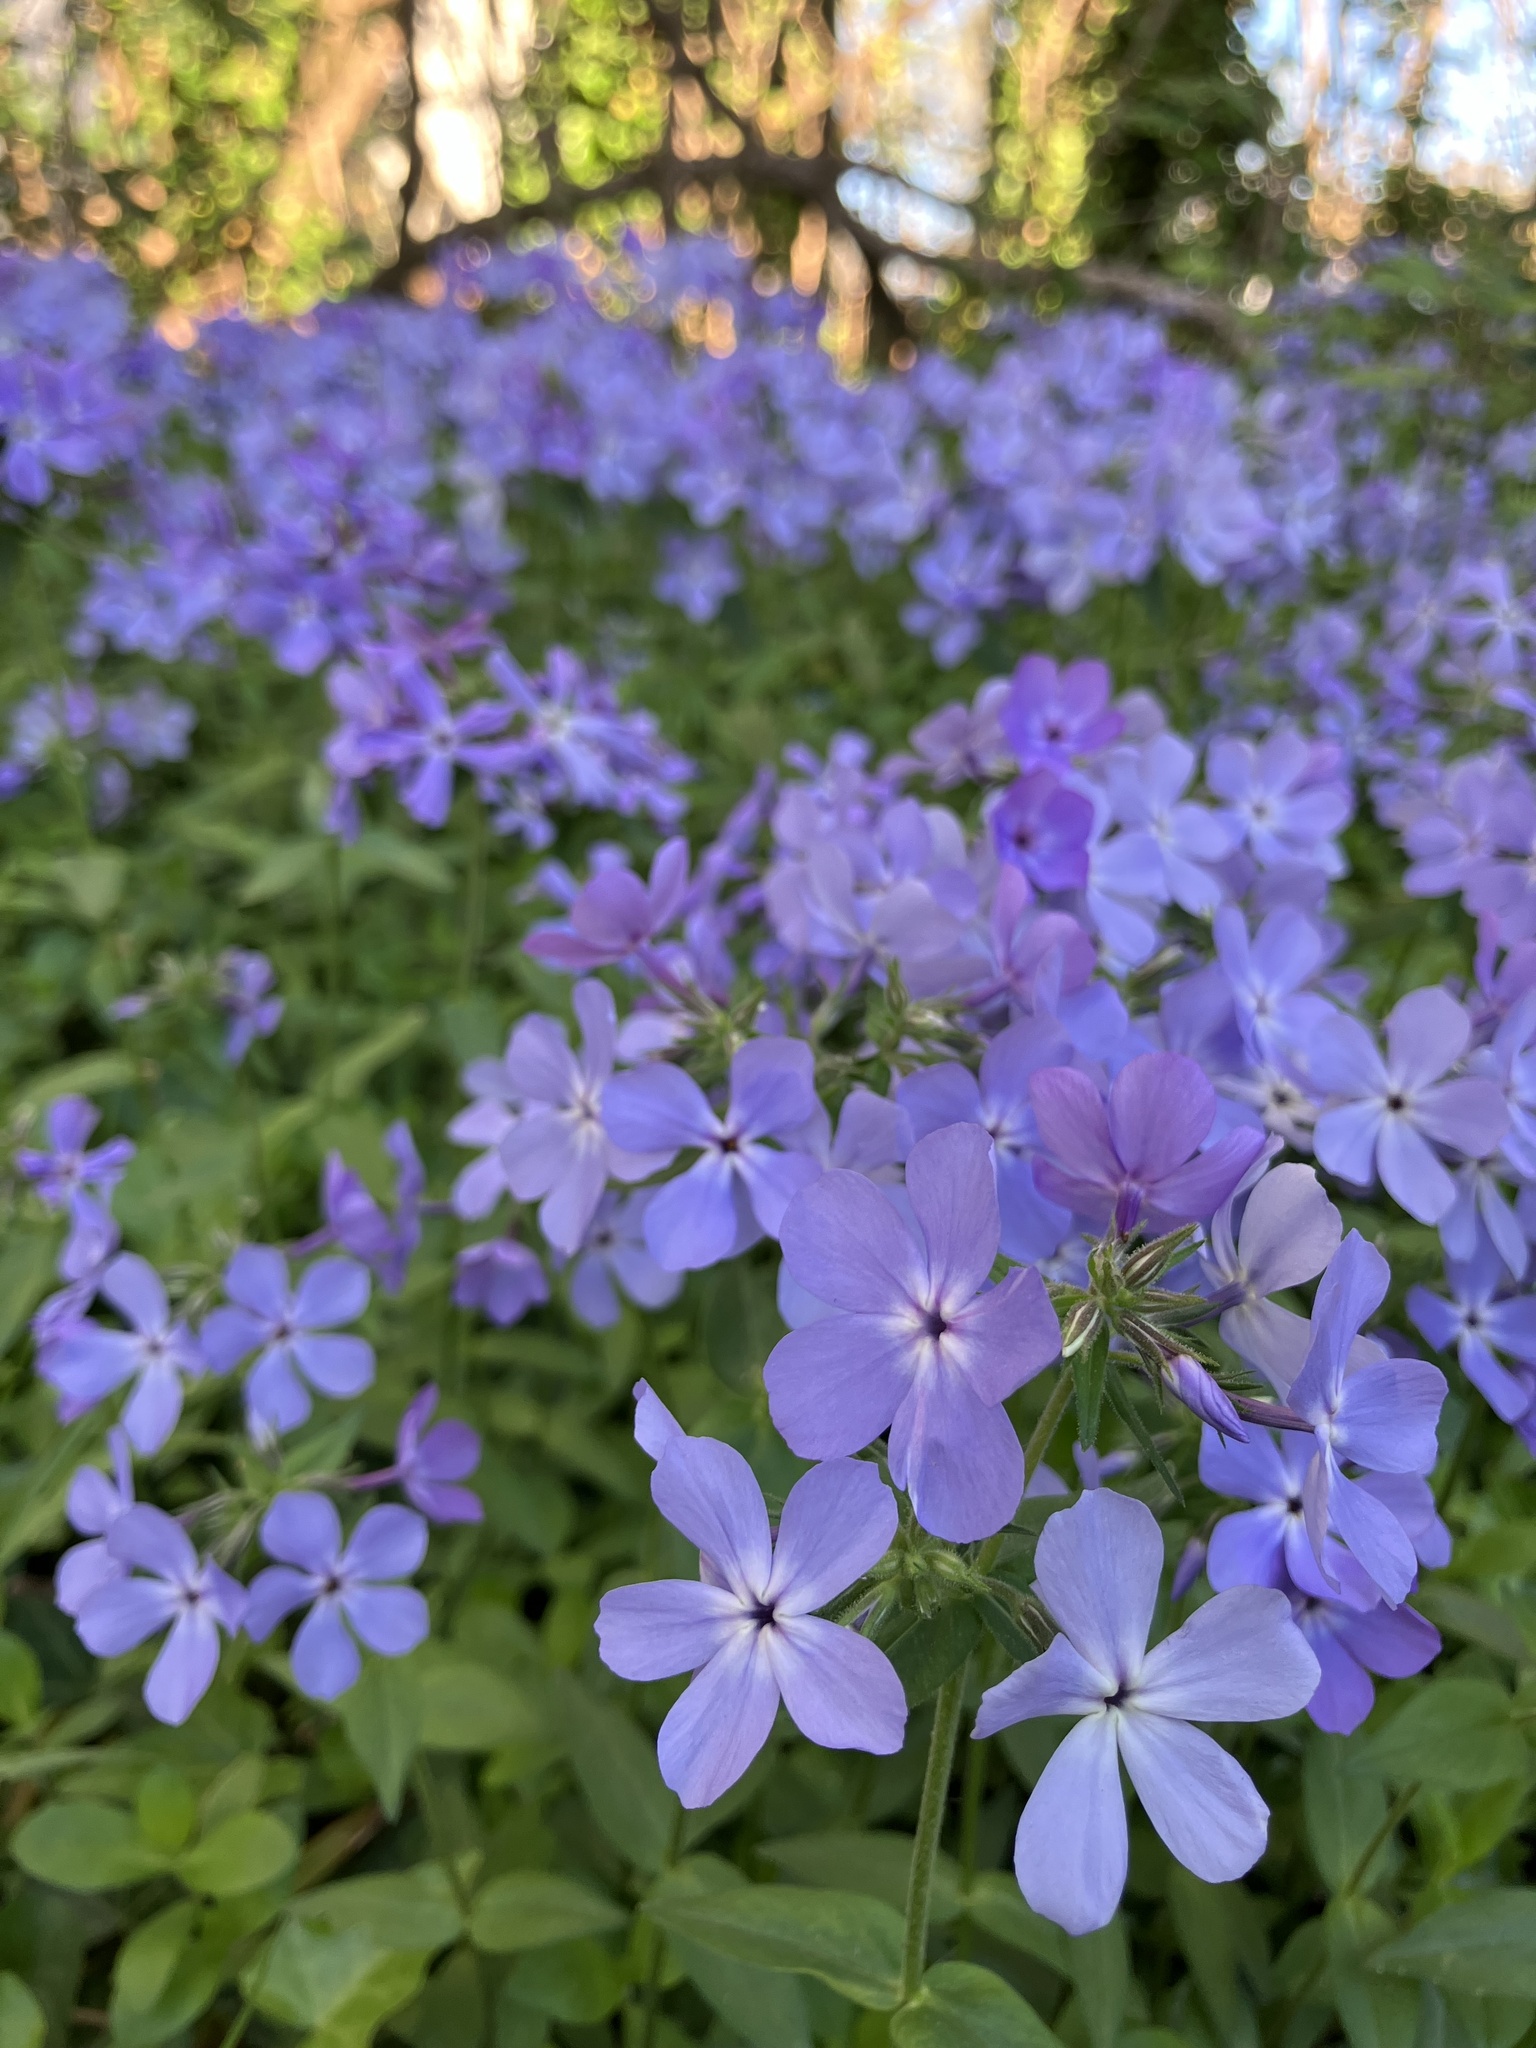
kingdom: Plantae
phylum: Tracheophyta
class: Magnoliopsida
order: Ericales
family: Polemoniaceae
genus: Phlox
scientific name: Phlox divaricata
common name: Blue phlox
